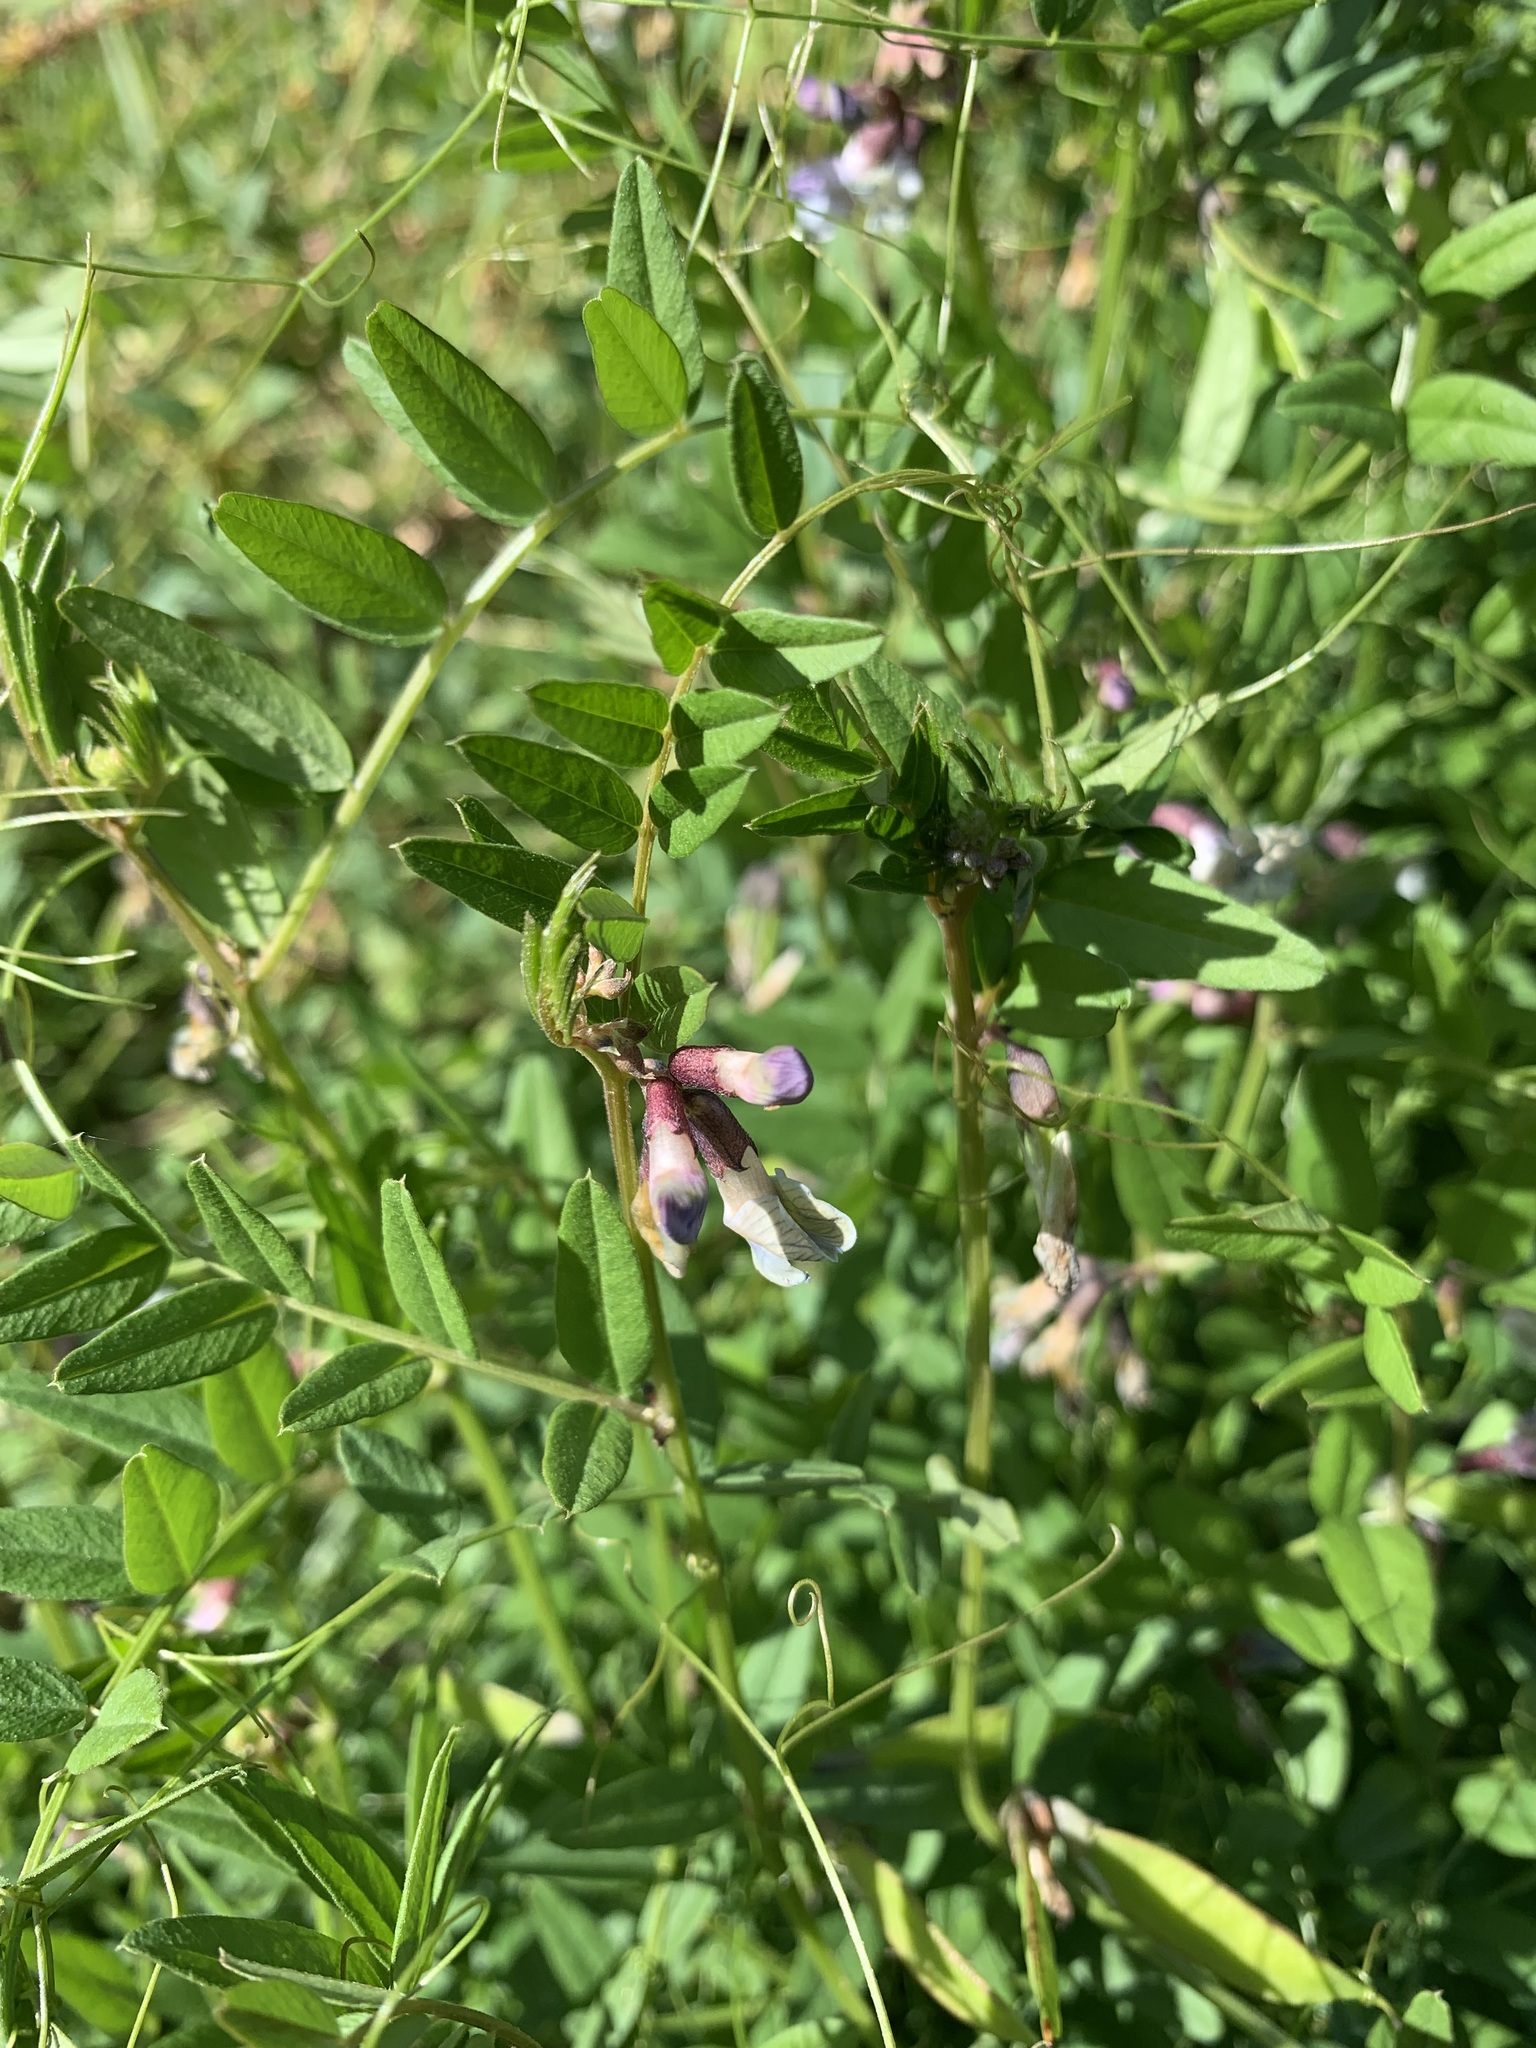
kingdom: Plantae
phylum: Tracheophyta
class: Magnoliopsida
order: Fabales
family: Fabaceae
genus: Vicia
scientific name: Vicia sepium
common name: Bush vetch
